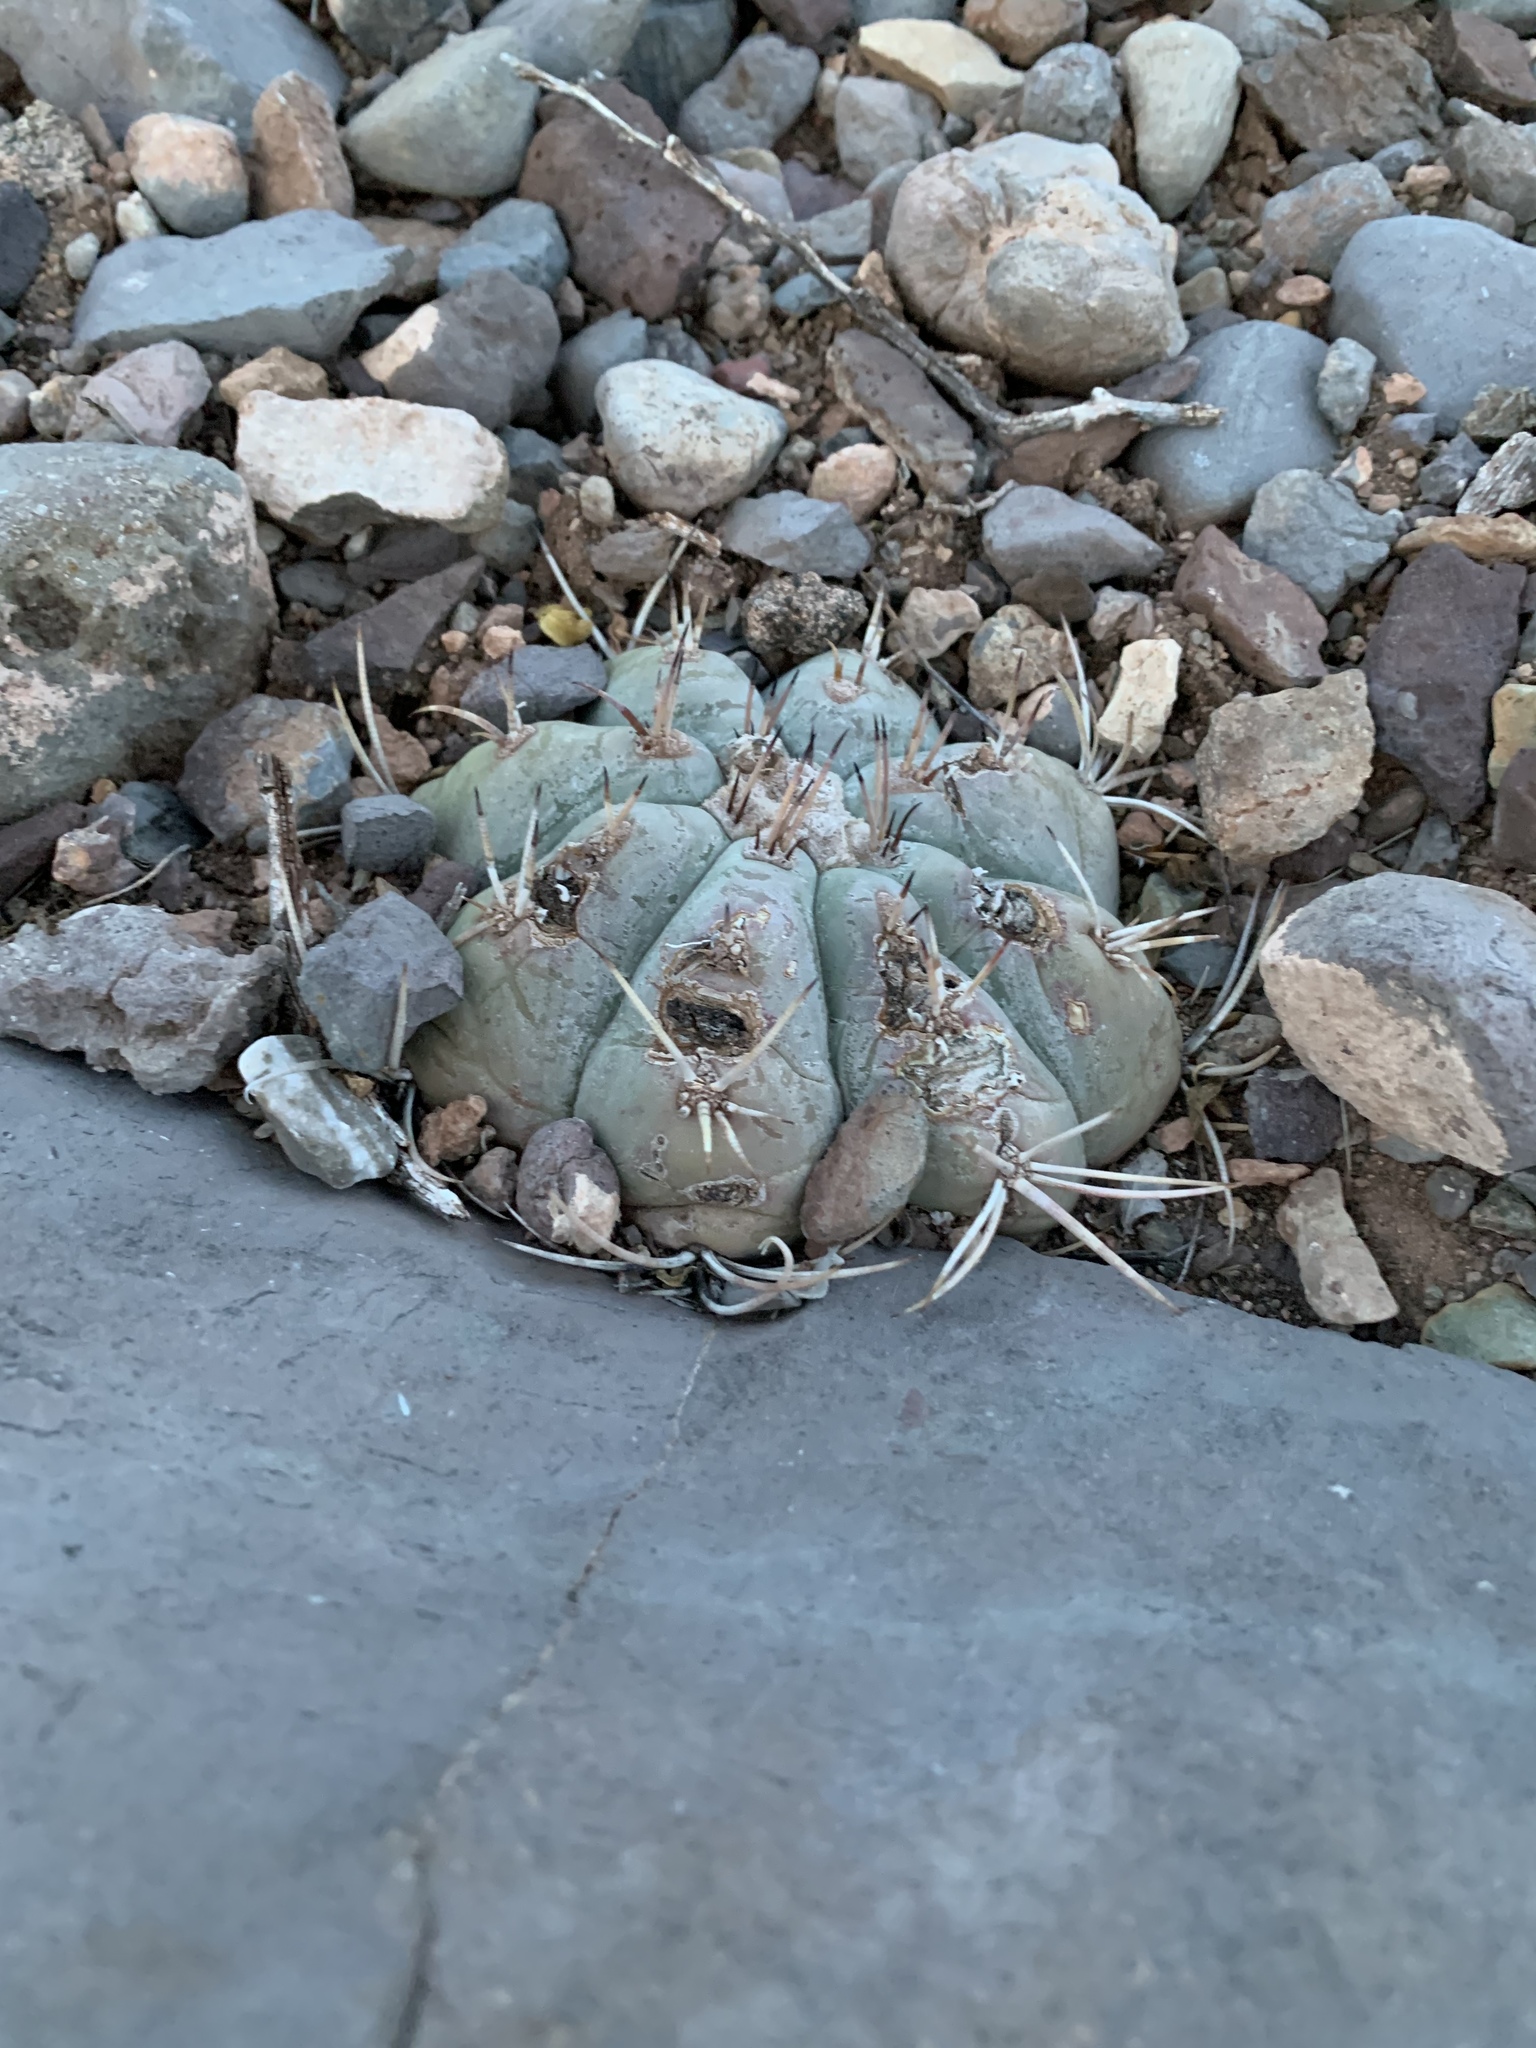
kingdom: Plantae
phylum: Tracheophyta
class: Magnoliopsida
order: Caryophyllales
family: Cactaceae
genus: Echinocactus
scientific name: Echinocactus horizonthalonius
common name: Devilshead
